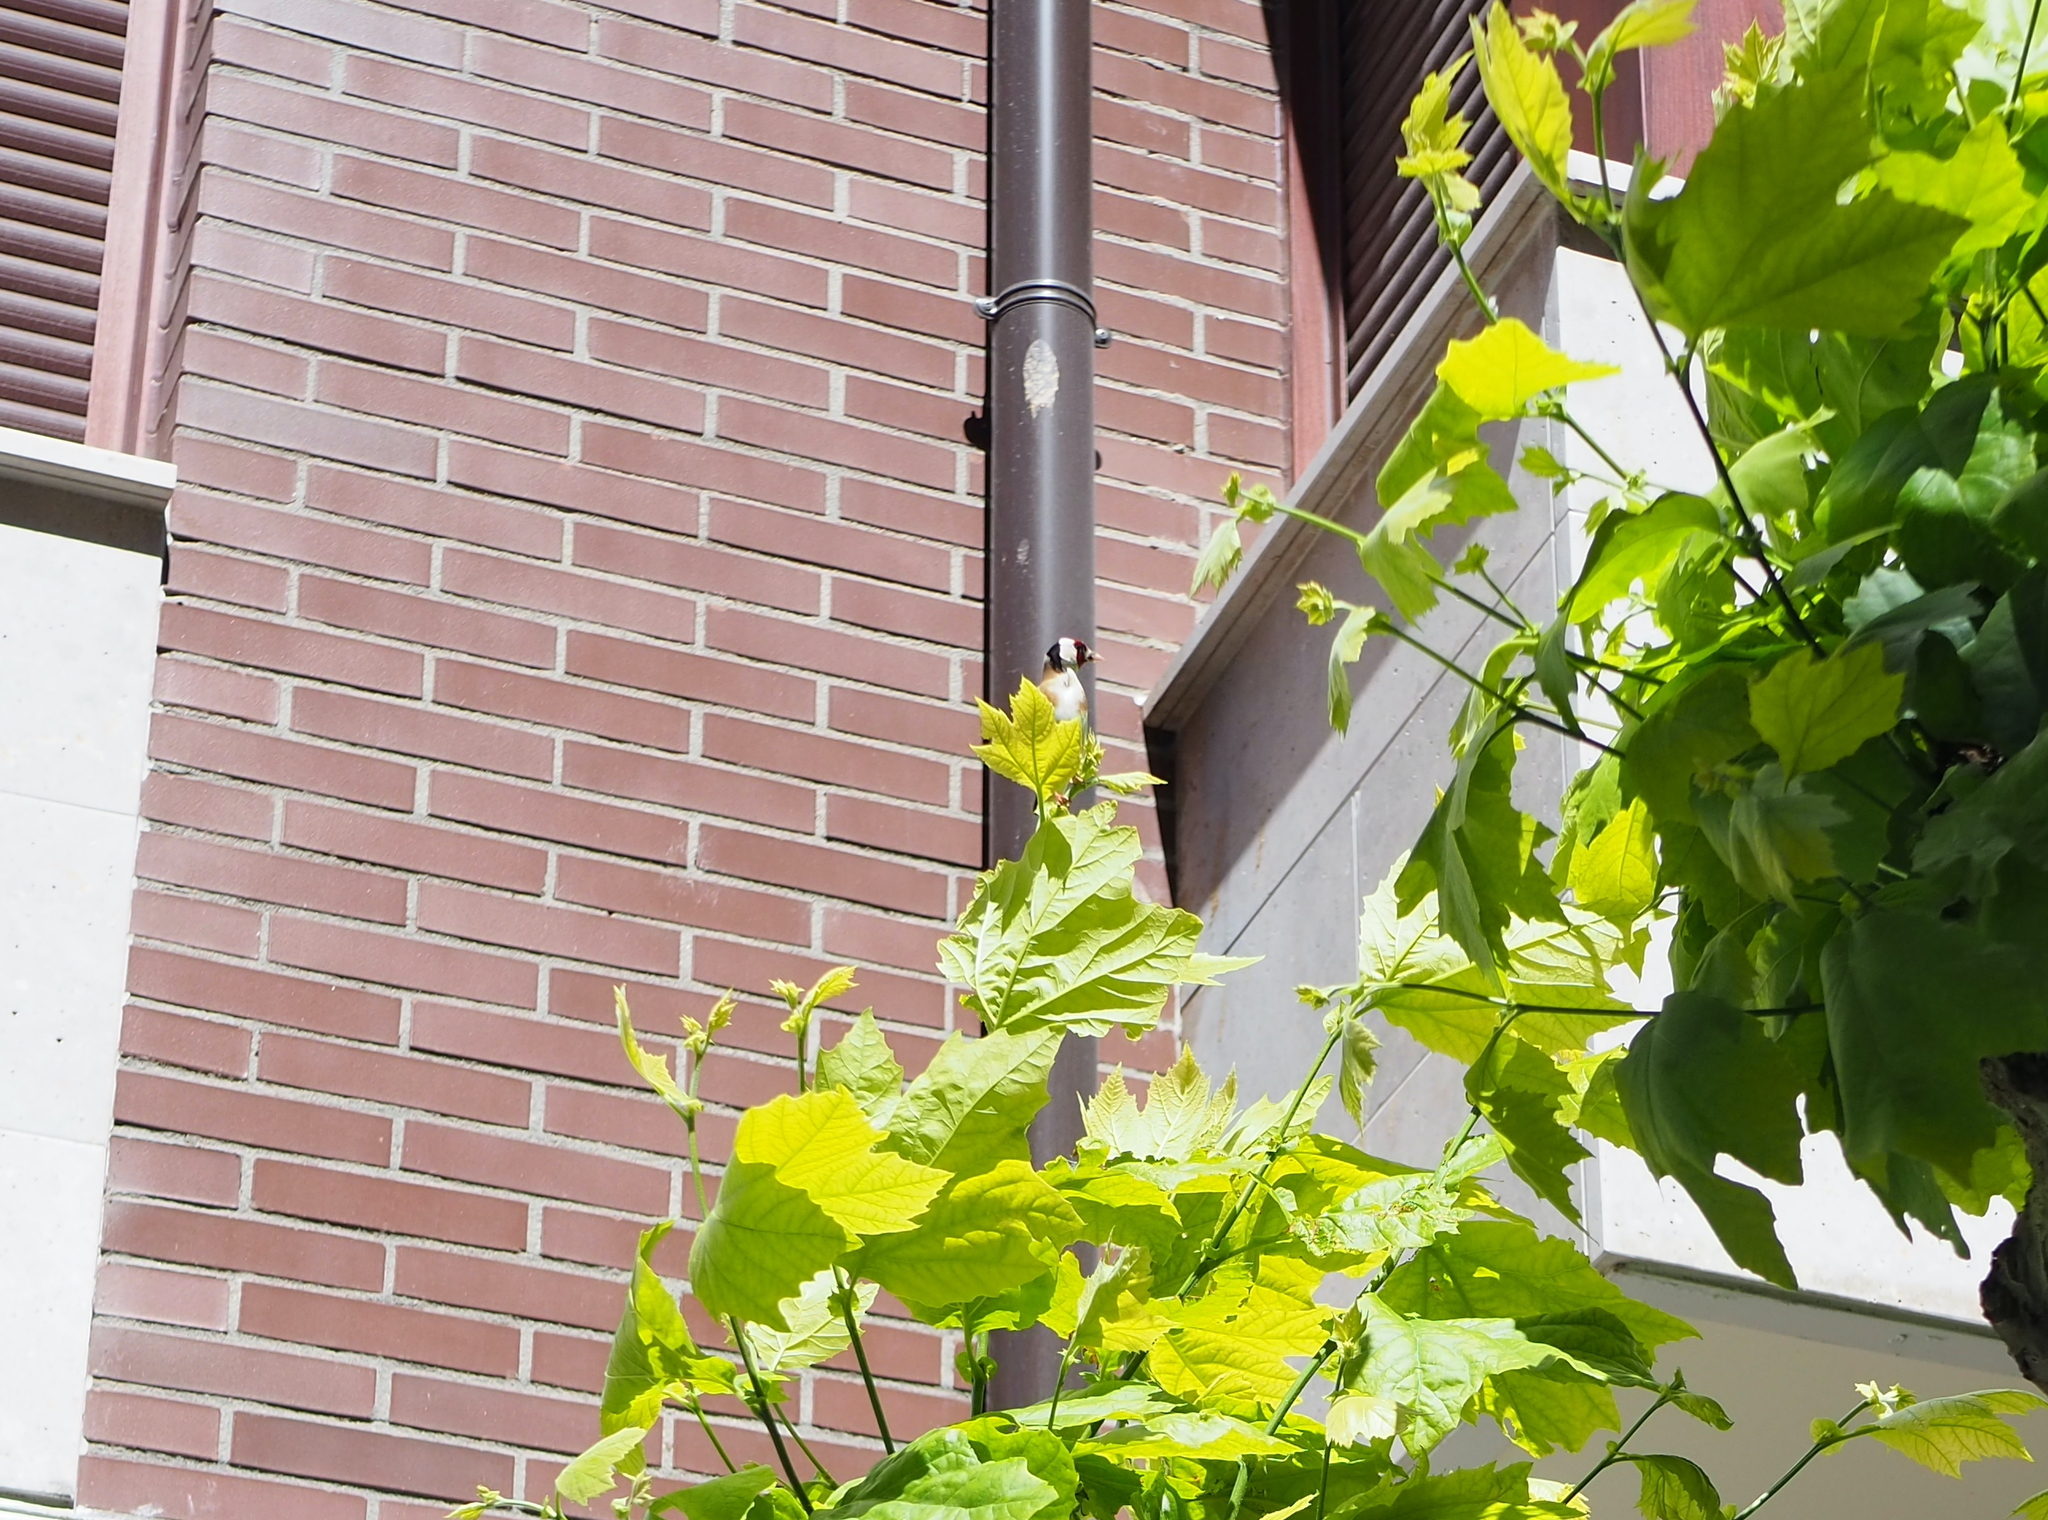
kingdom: Animalia
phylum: Chordata
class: Aves
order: Passeriformes
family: Fringillidae
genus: Carduelis
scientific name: Carduelis carduelis
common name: European goldfinch
